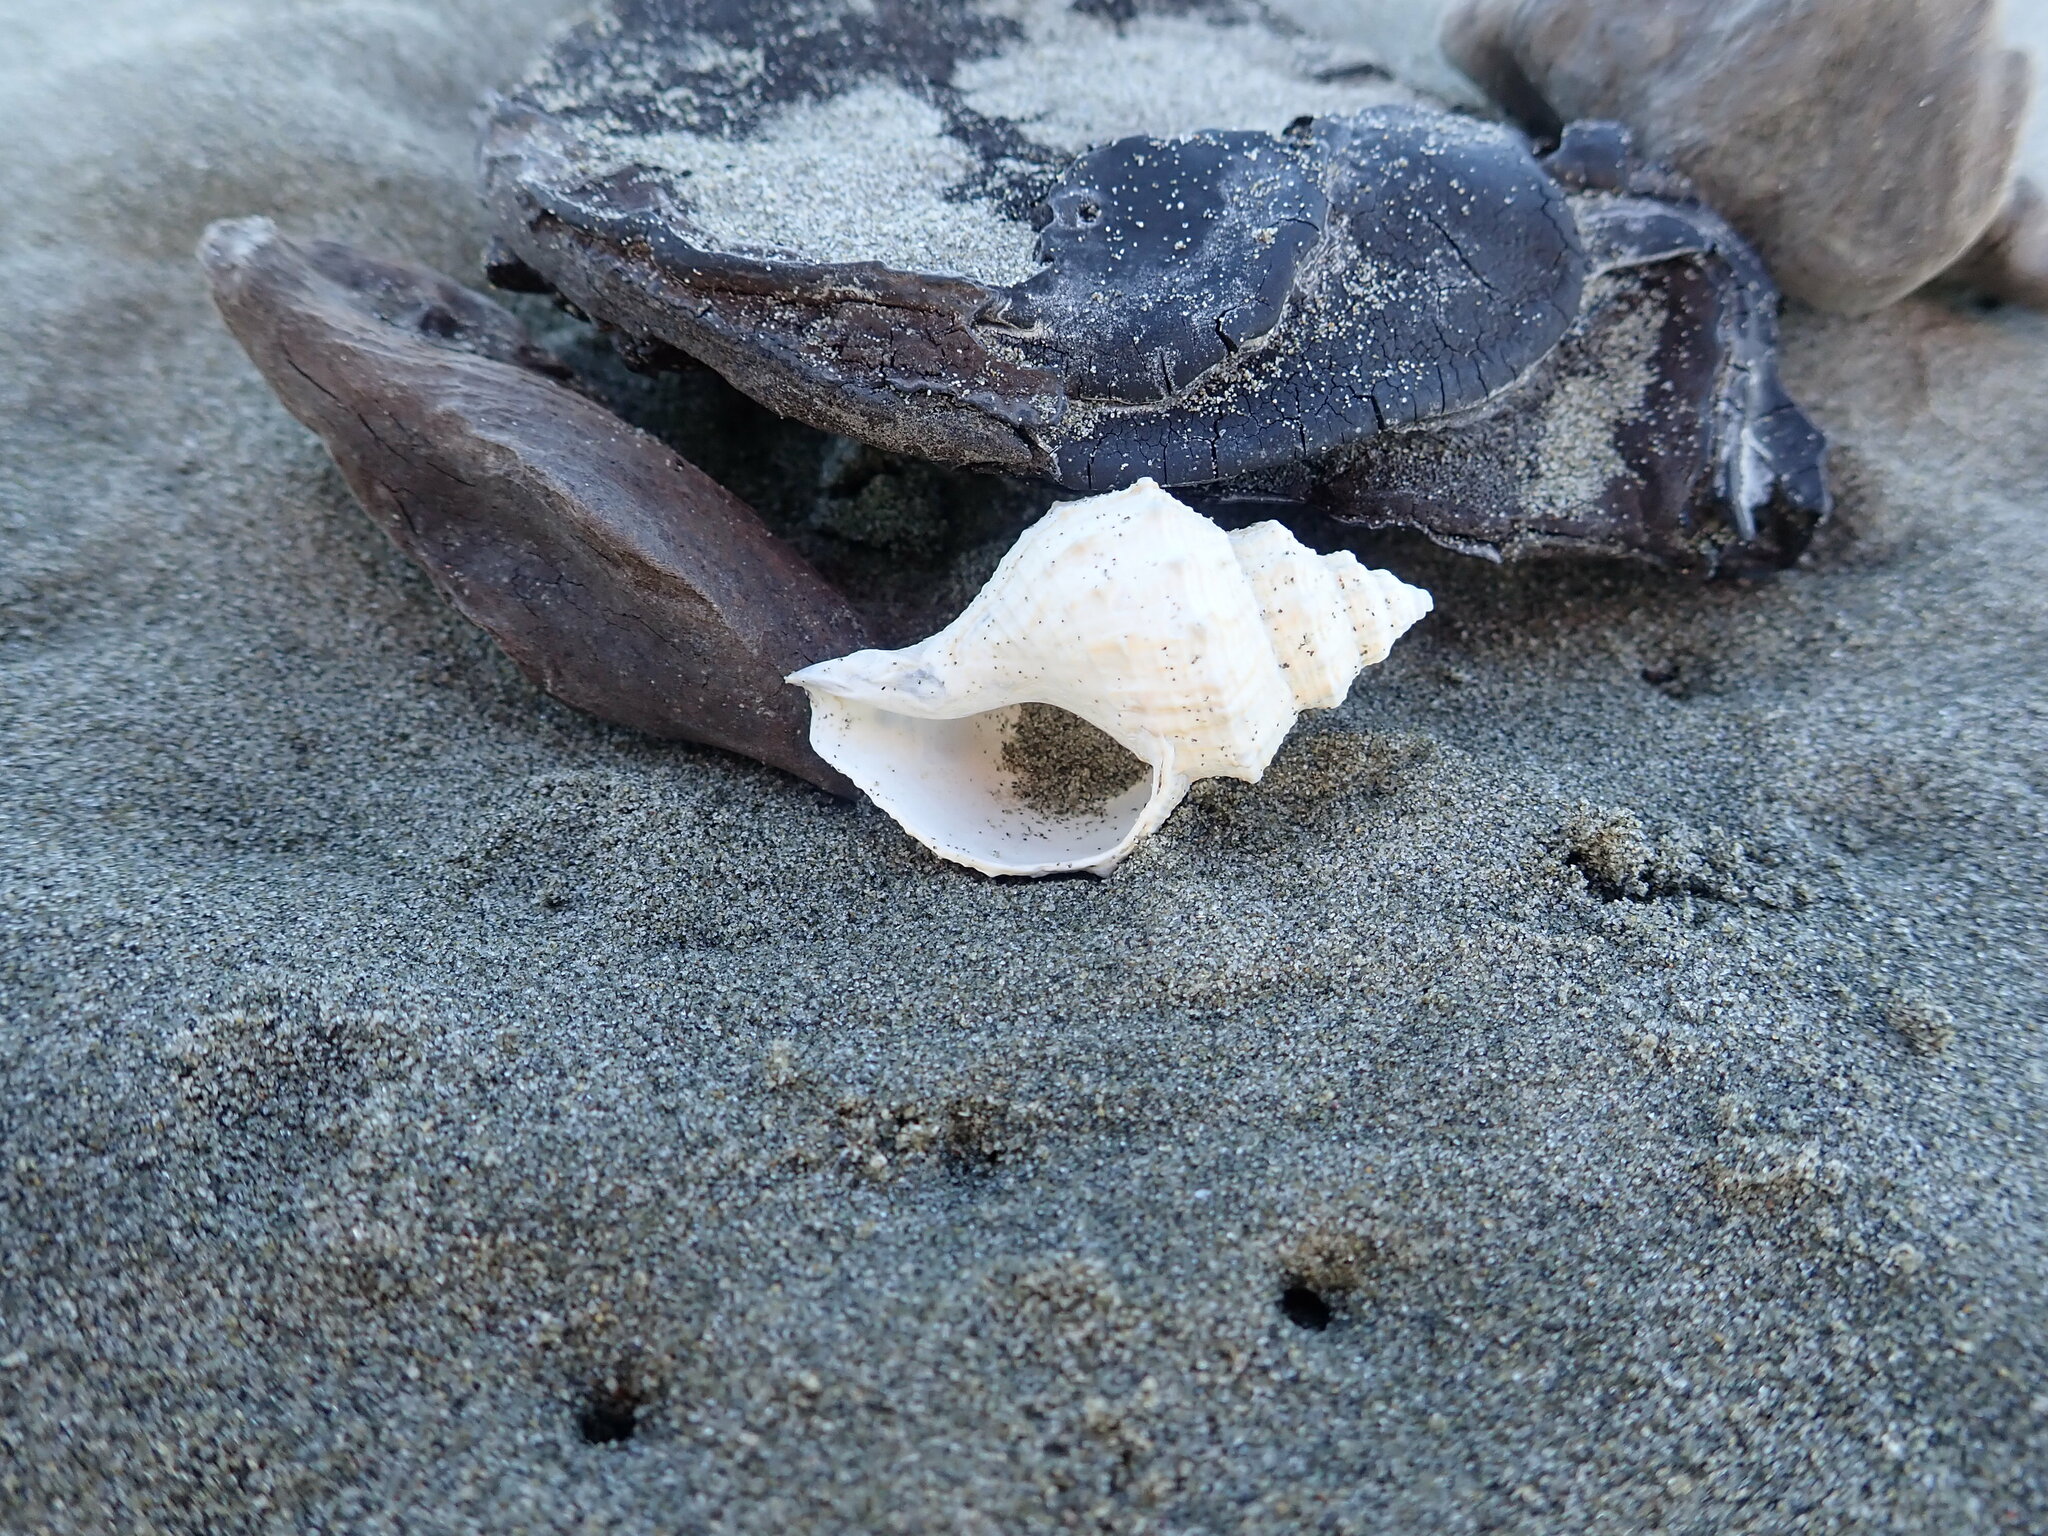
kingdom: Animalia
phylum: Mollusca
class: Gastropoda
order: Neogastropoda
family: Prosiphonidae
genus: Austrofusus
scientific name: Austrofusus glans
